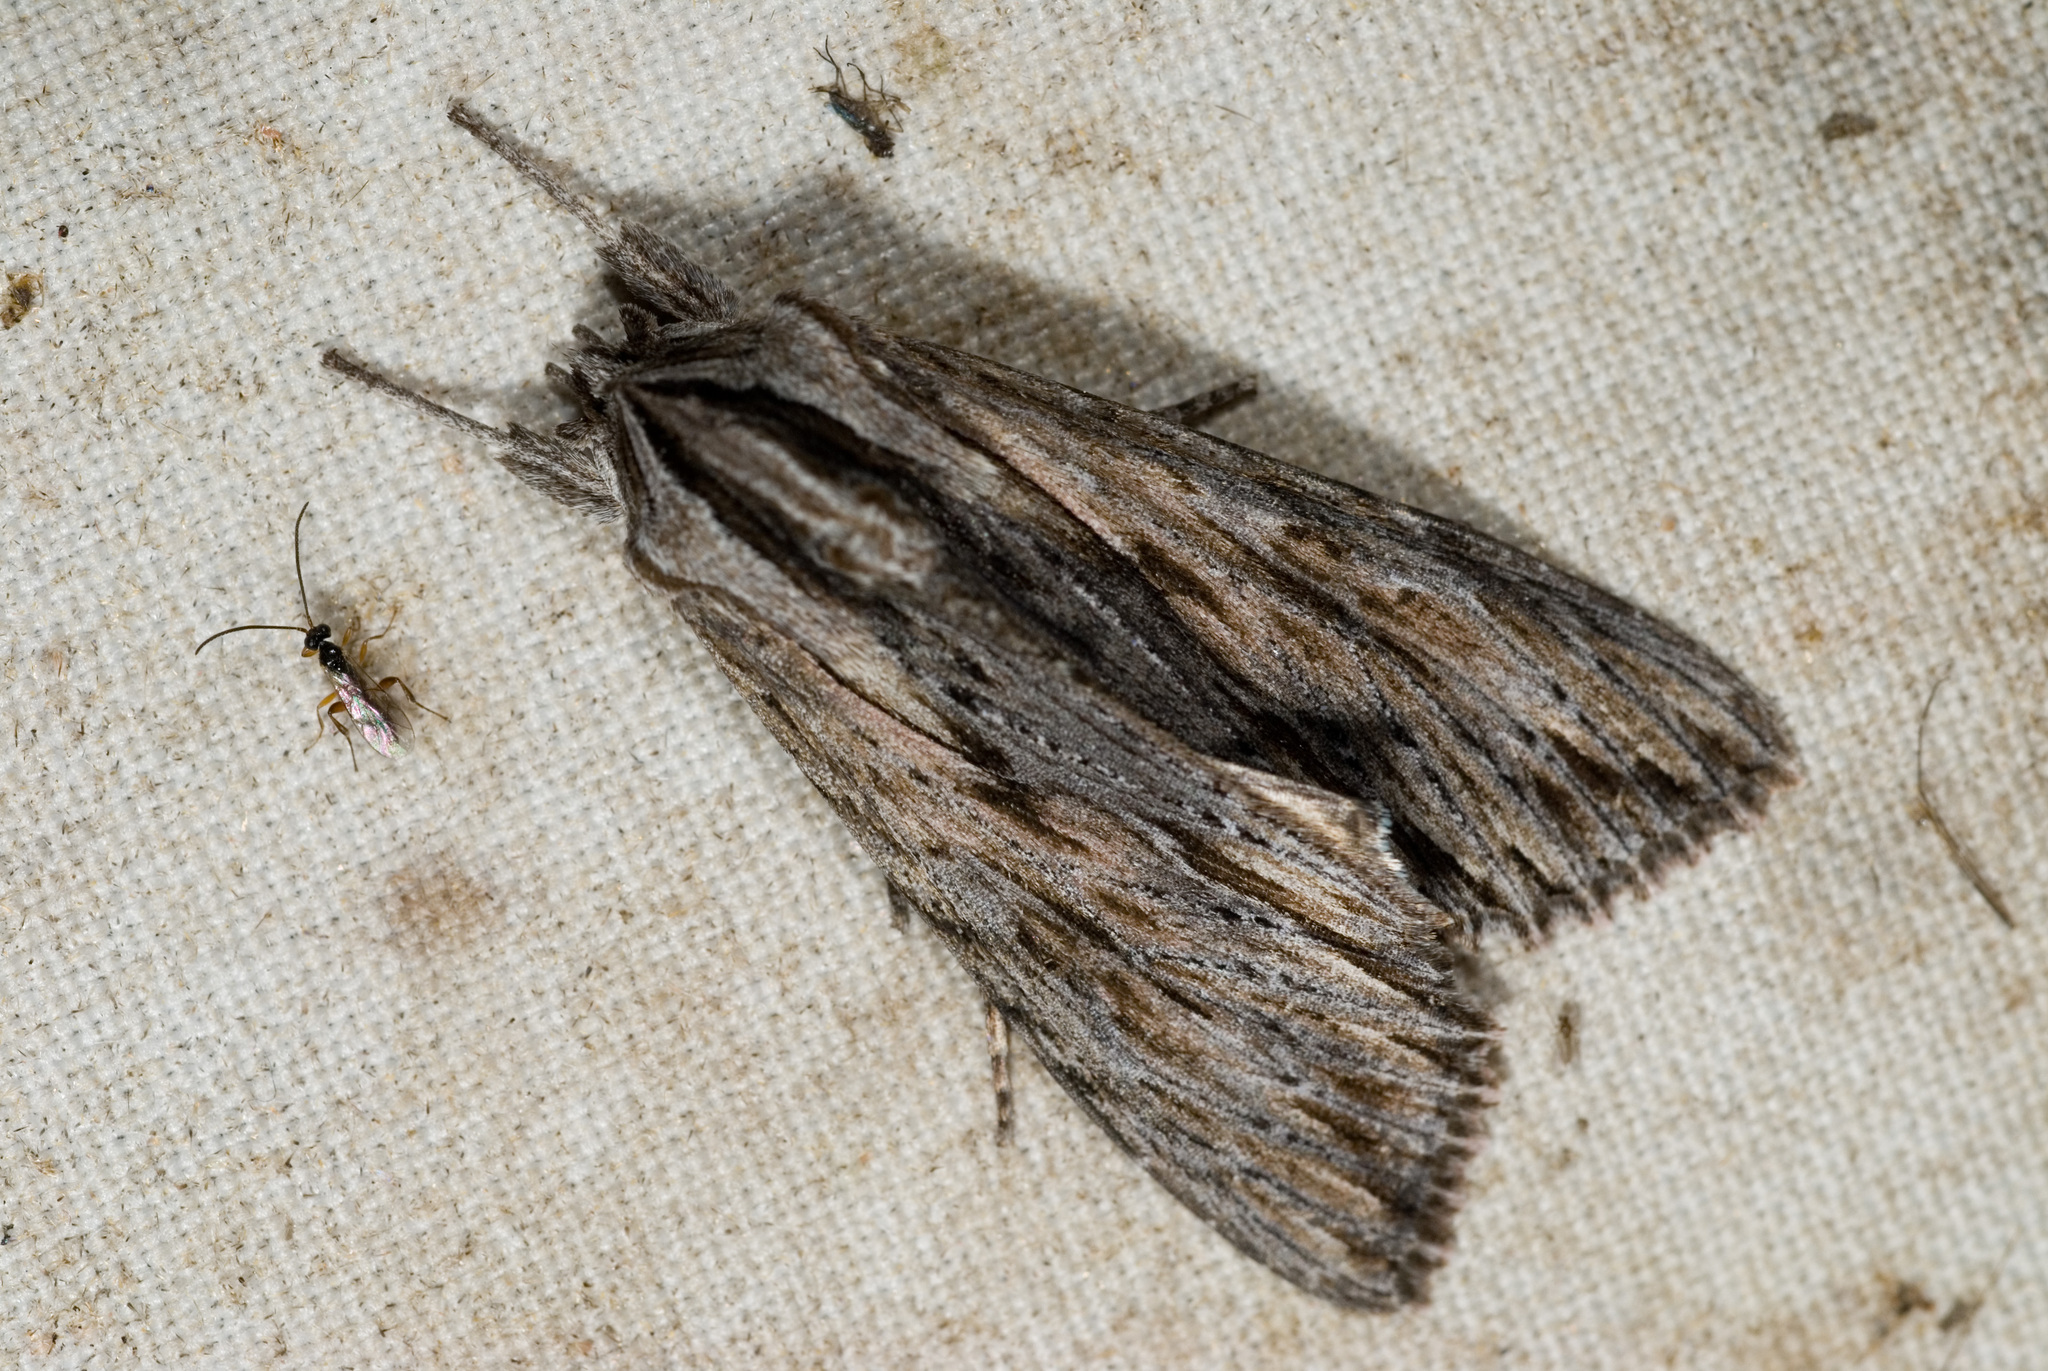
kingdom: Animalia
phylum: Arthropoda
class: Insecta
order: Lepidoptera
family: Noctuidae
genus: Auchmis
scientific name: Auchmis inextricata
